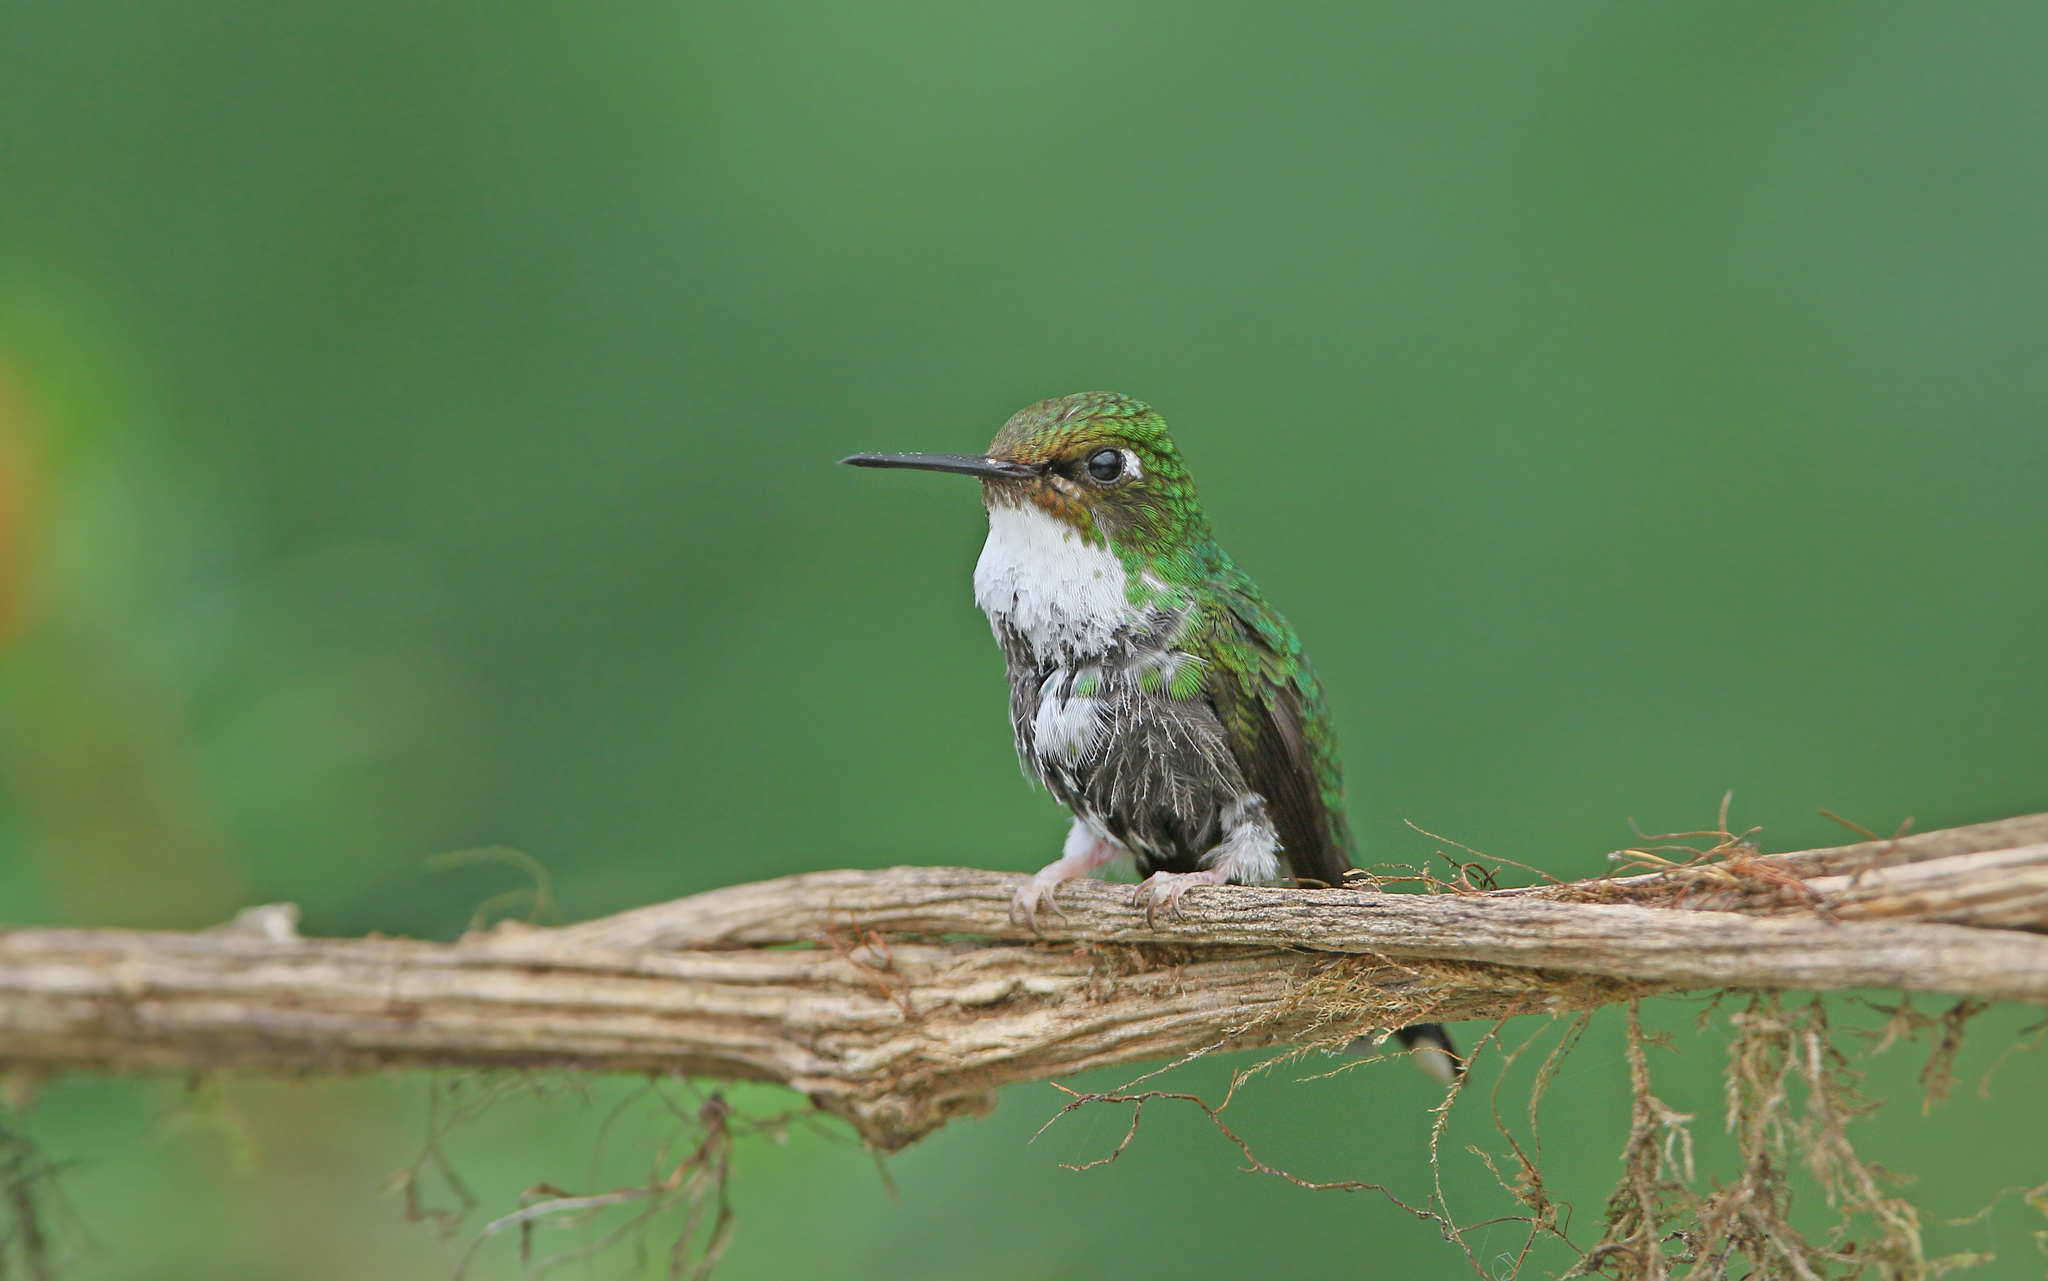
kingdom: Animalia
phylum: Chordata
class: Aves
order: Apodiformes
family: Trochilidae
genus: Ocreatus
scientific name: Ocreatus underwoodii
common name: Booted racket-tail
